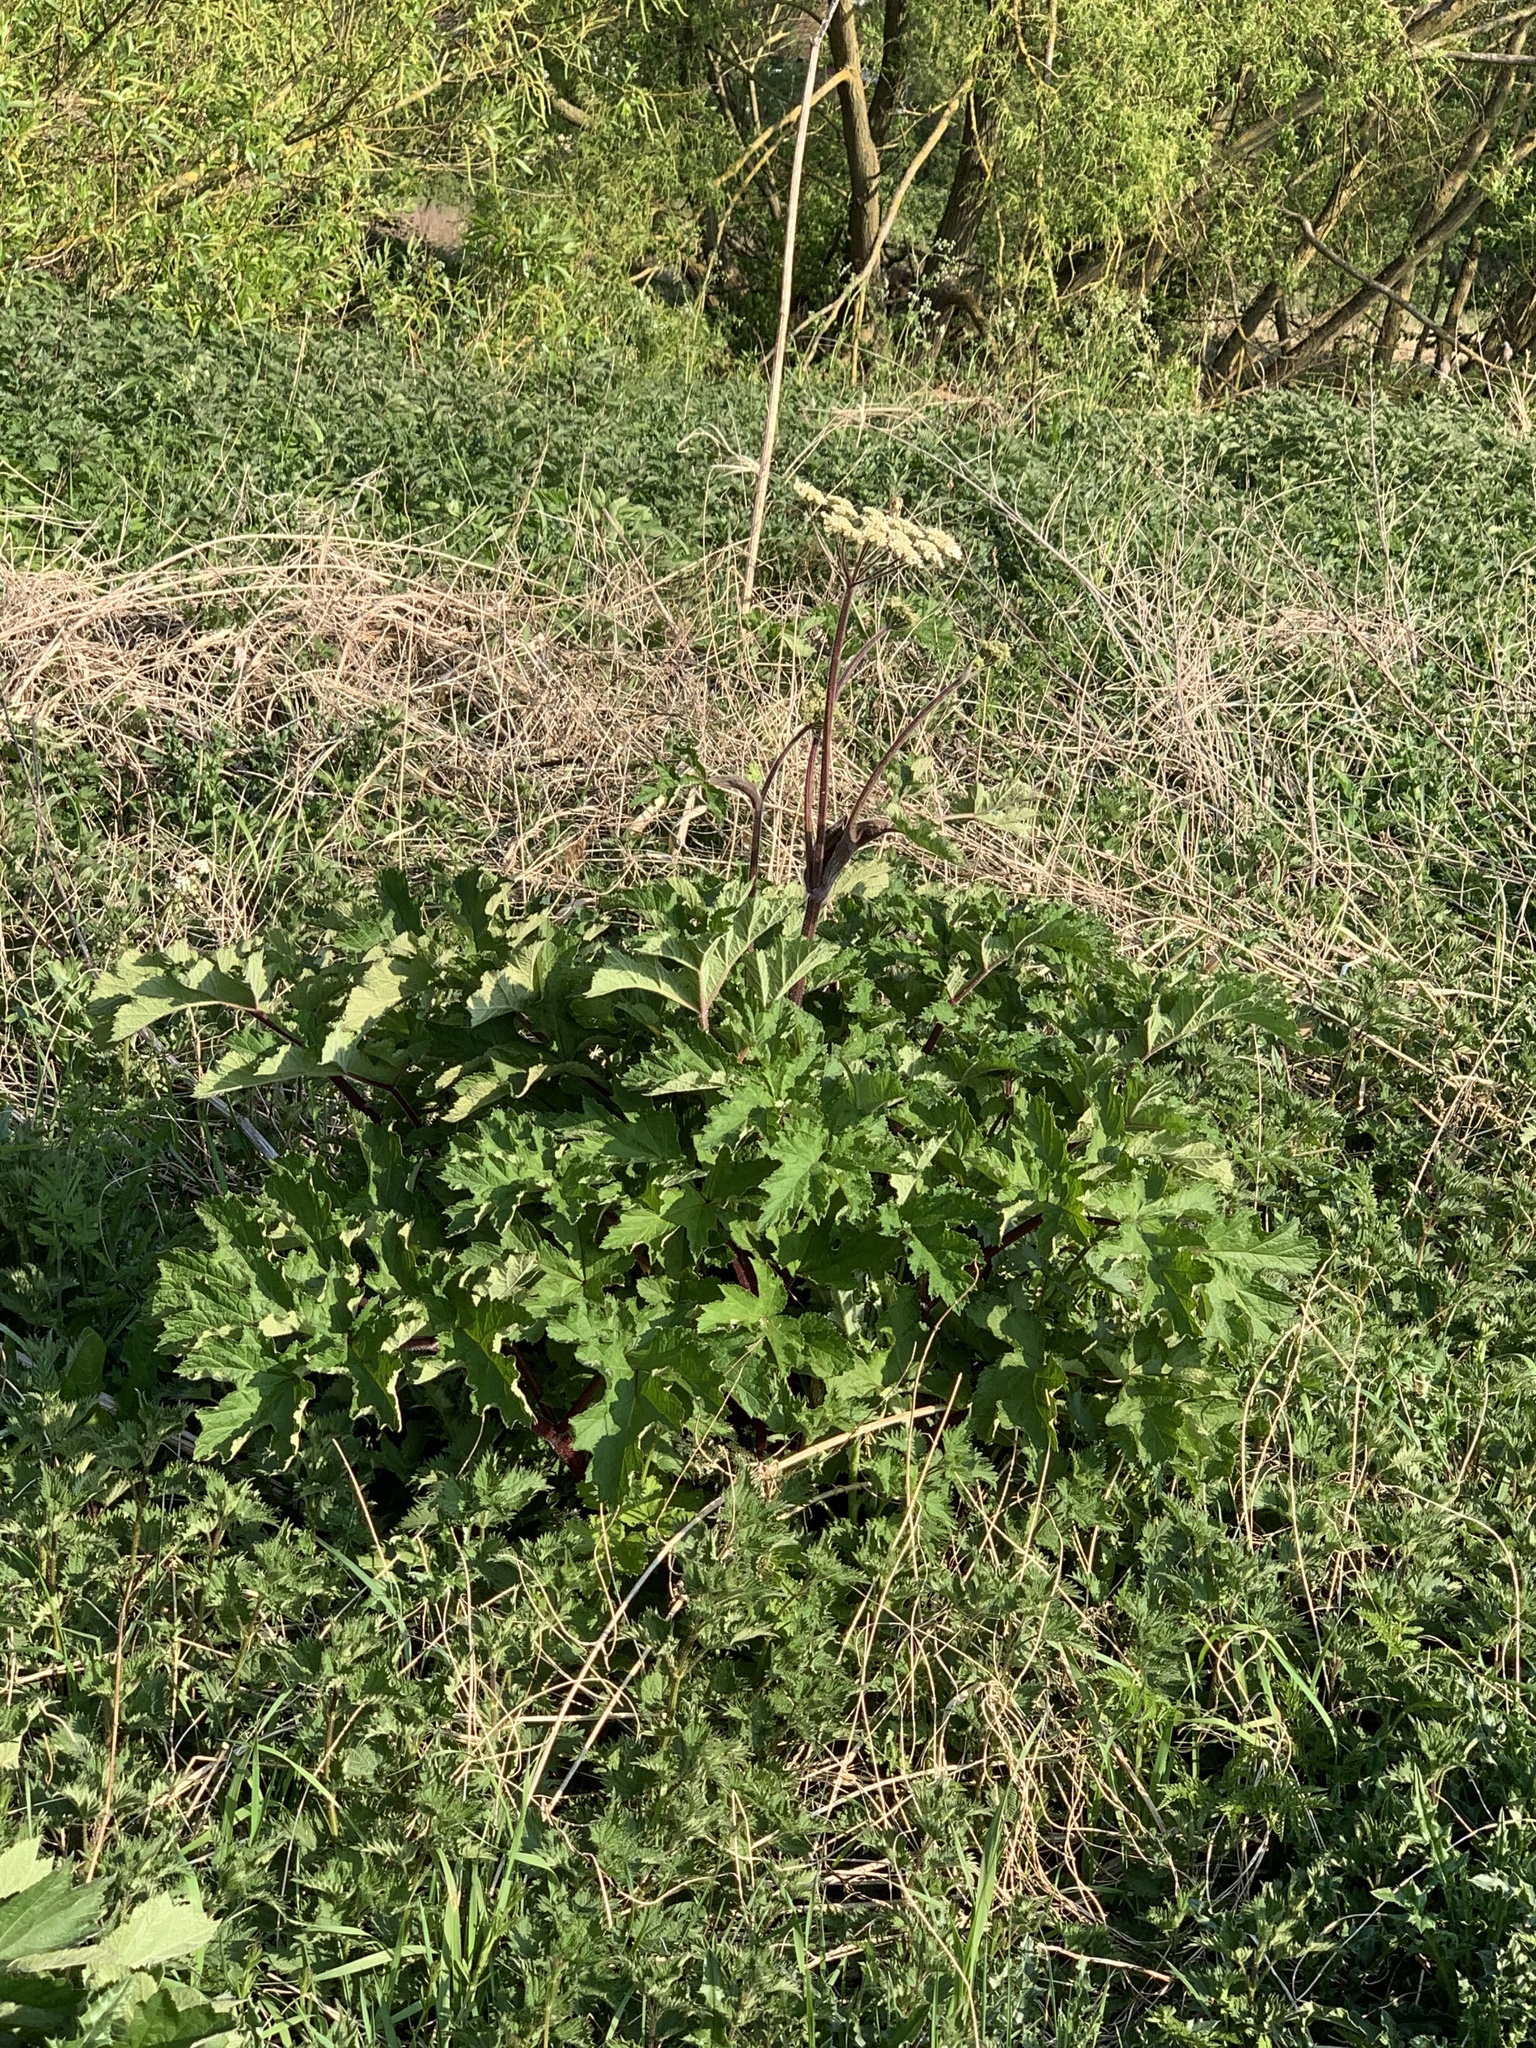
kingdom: Plantae
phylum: Tracheophyta
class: Magnoliopsida
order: Apiales
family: Apiaceae
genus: Heracleum
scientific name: Heracleum sphondylium
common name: Hogweed
